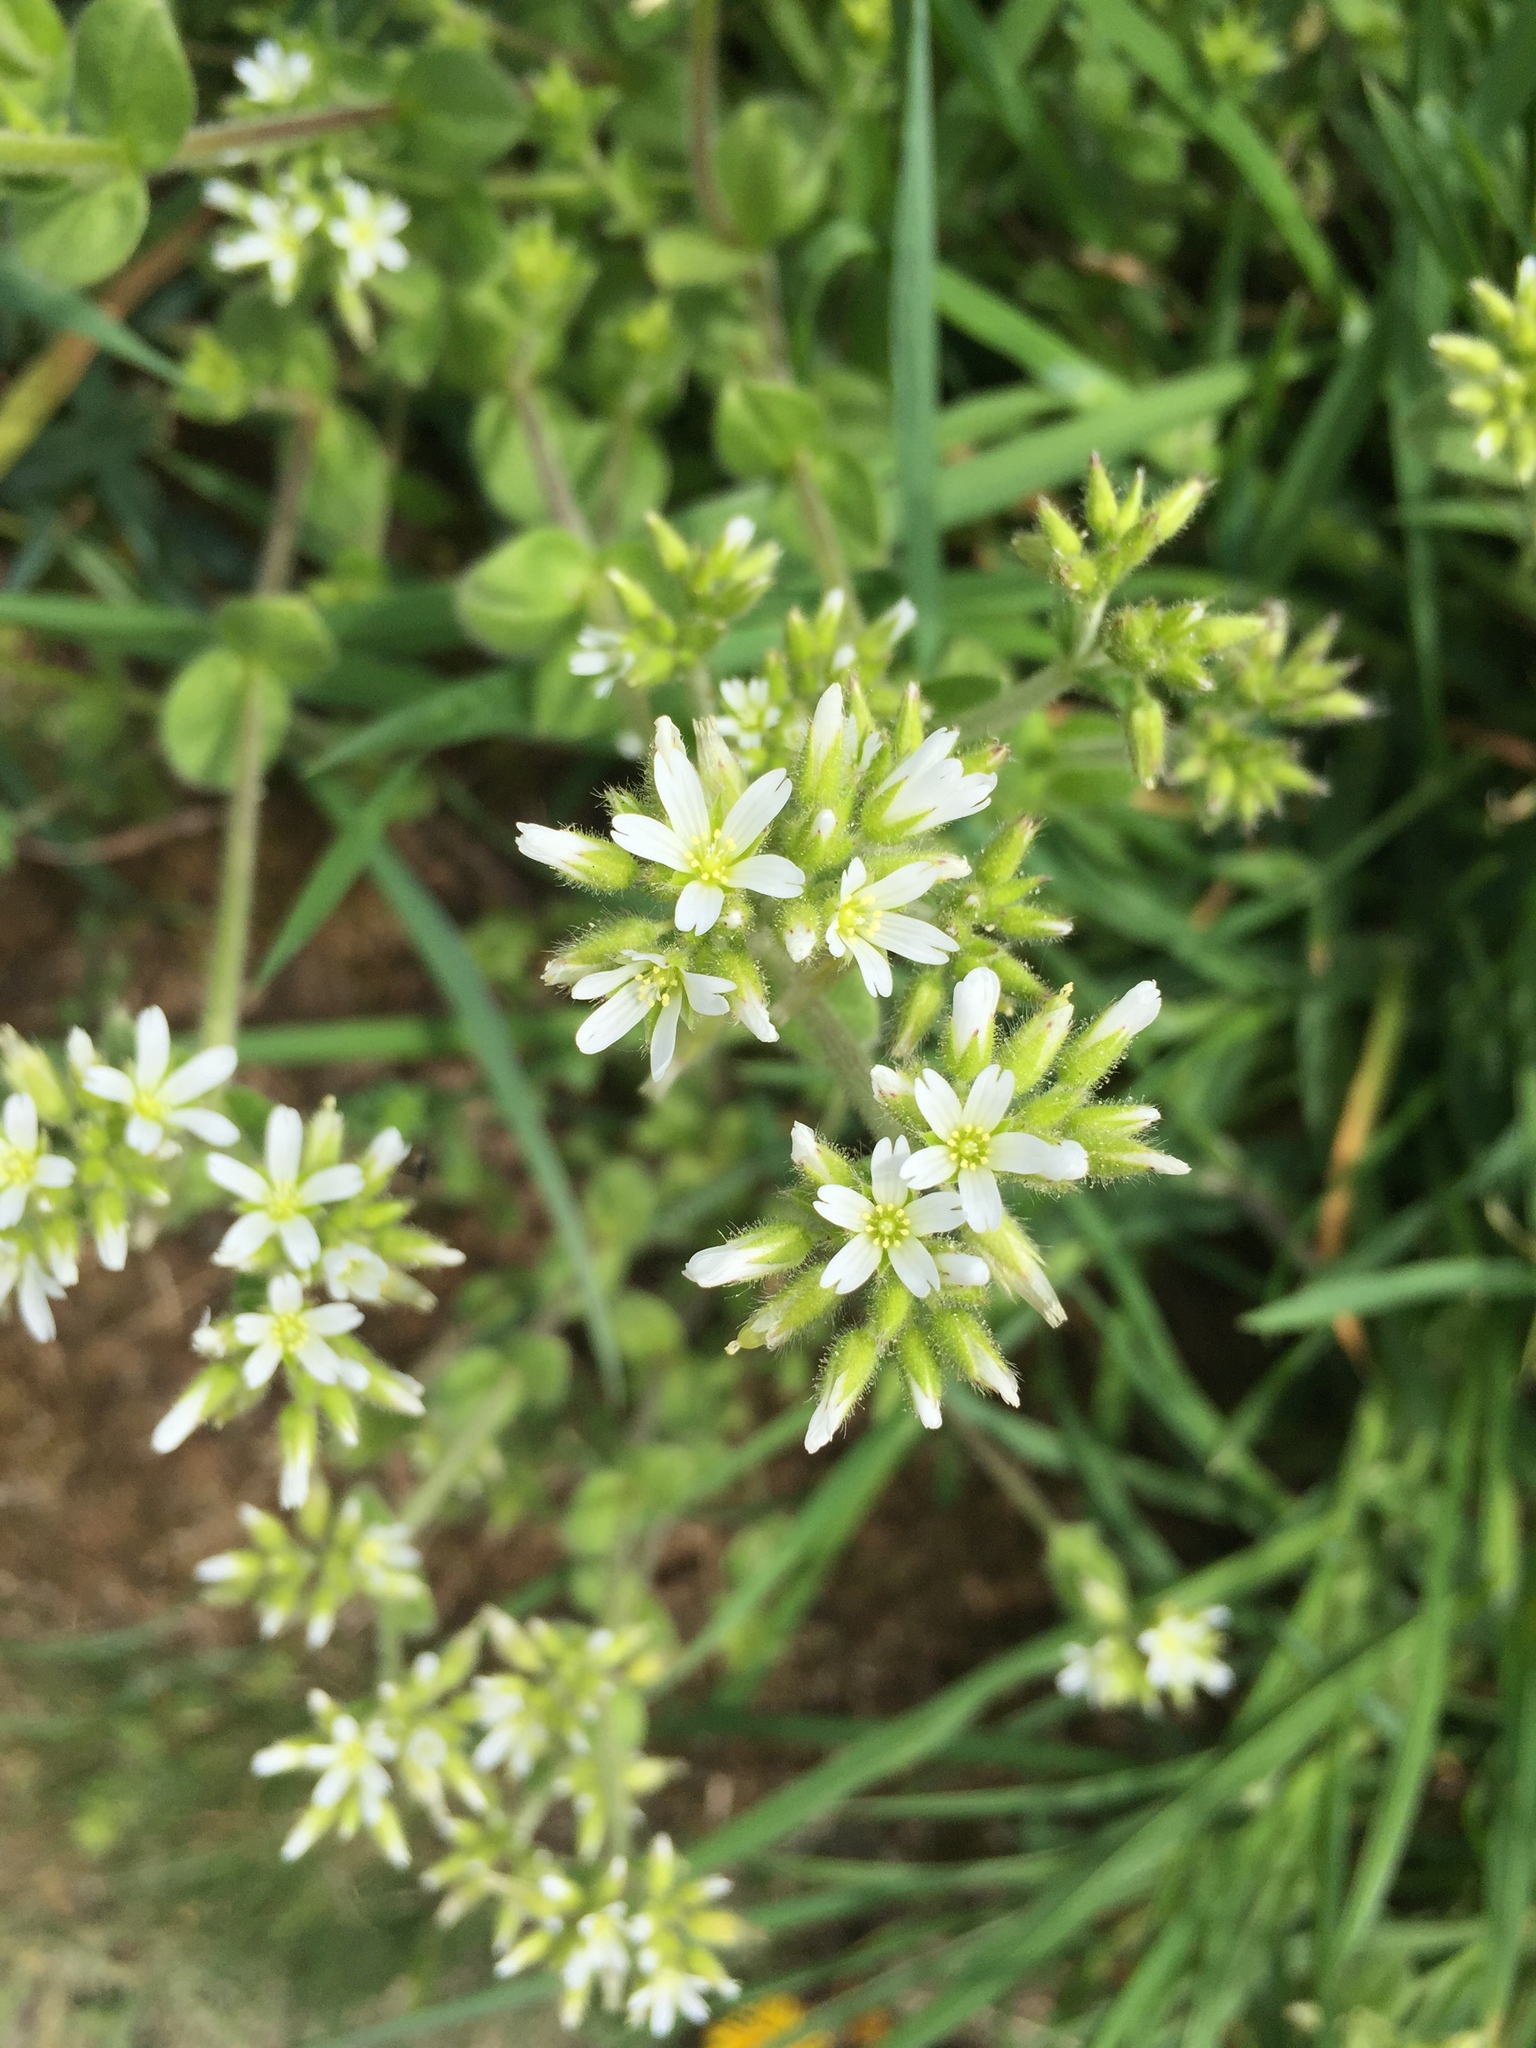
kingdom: Plantae
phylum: Tracheophyta
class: Magnoliopsida
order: Caryophyllales
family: Caryophyllaceae
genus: Cerastium
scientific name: Cerastium glomeratum
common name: Sticky chickweed
